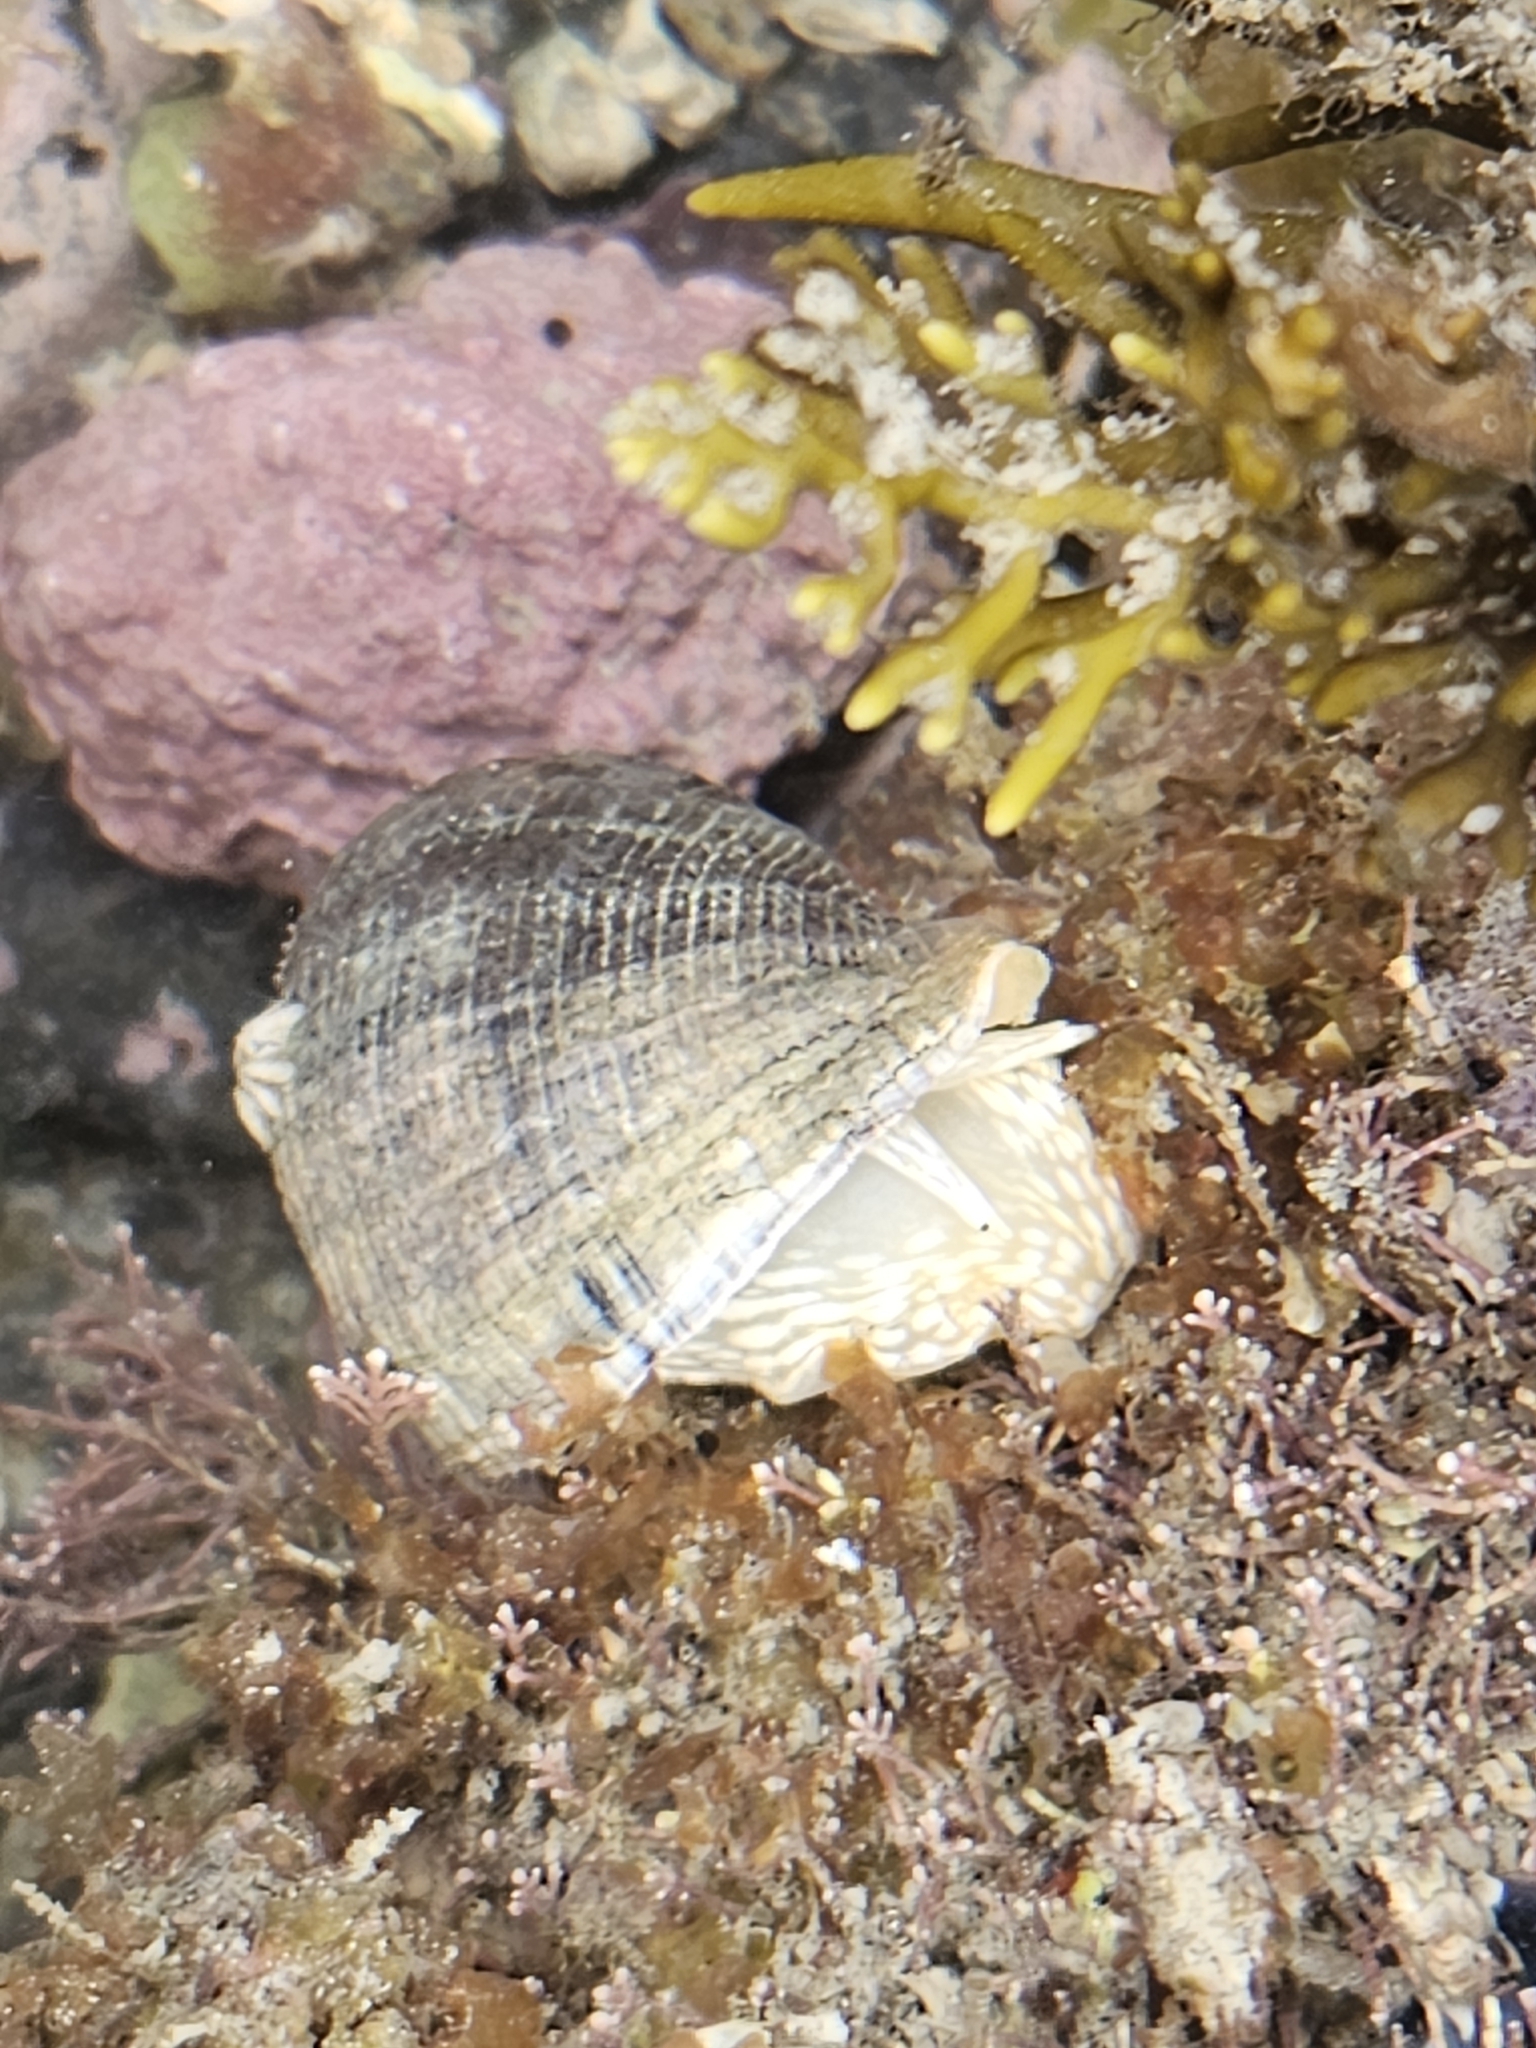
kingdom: Animalia
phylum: Mollusca
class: Gastropoda
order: Neogastropoda
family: Muricidae
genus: Haustrum
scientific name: Haustrum haustorium
